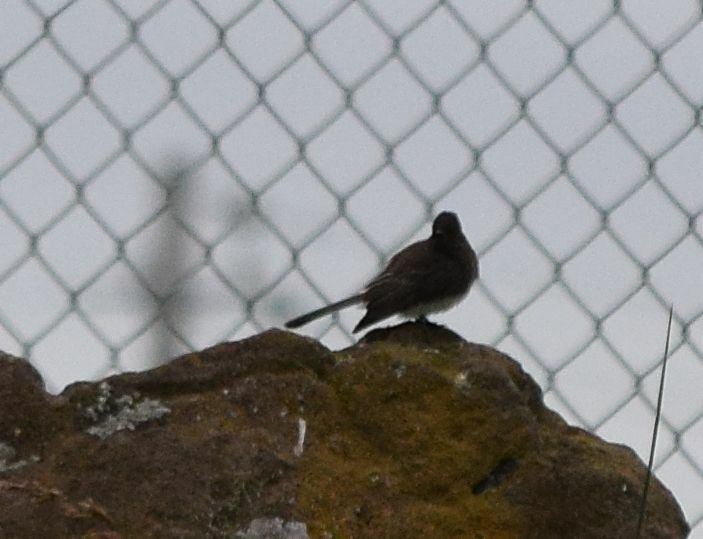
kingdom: Animalia
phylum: Chordata
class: Aves
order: Passeriformes
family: Tyrannidae
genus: Sayornis
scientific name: Sayornis nigricans
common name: Black phoebe
